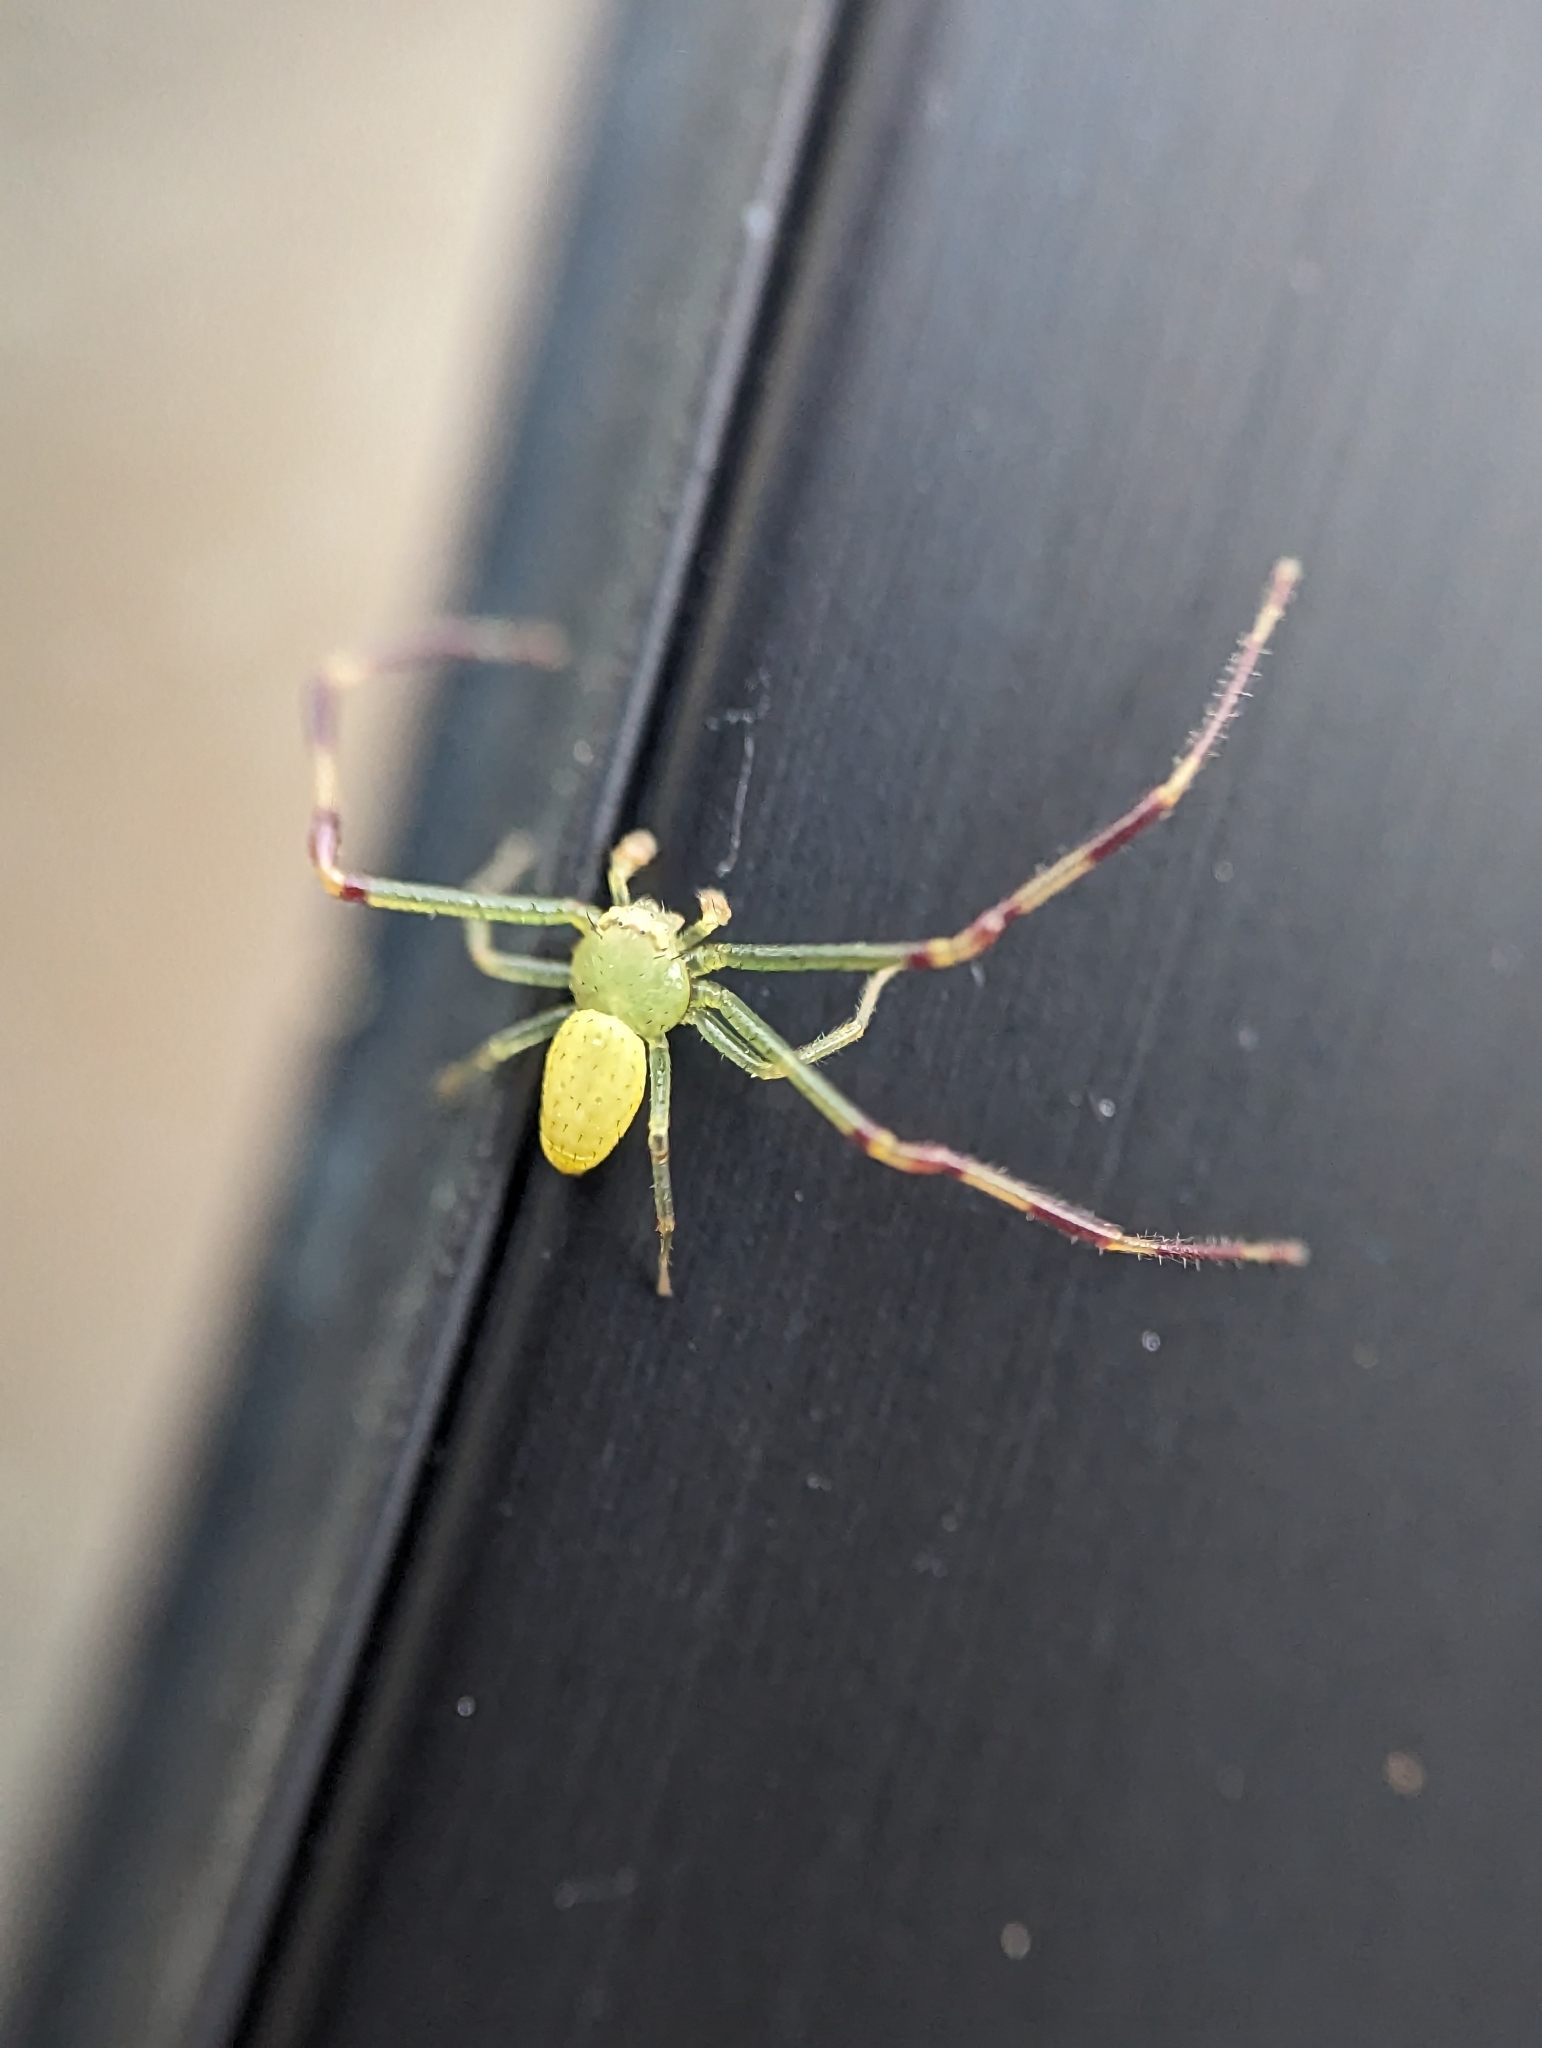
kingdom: Animalia
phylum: Arthropoda
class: Arachnida
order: Araneae
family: Thomisidae
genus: Misumessus
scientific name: Misumessus oblongus
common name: American green crab spider
